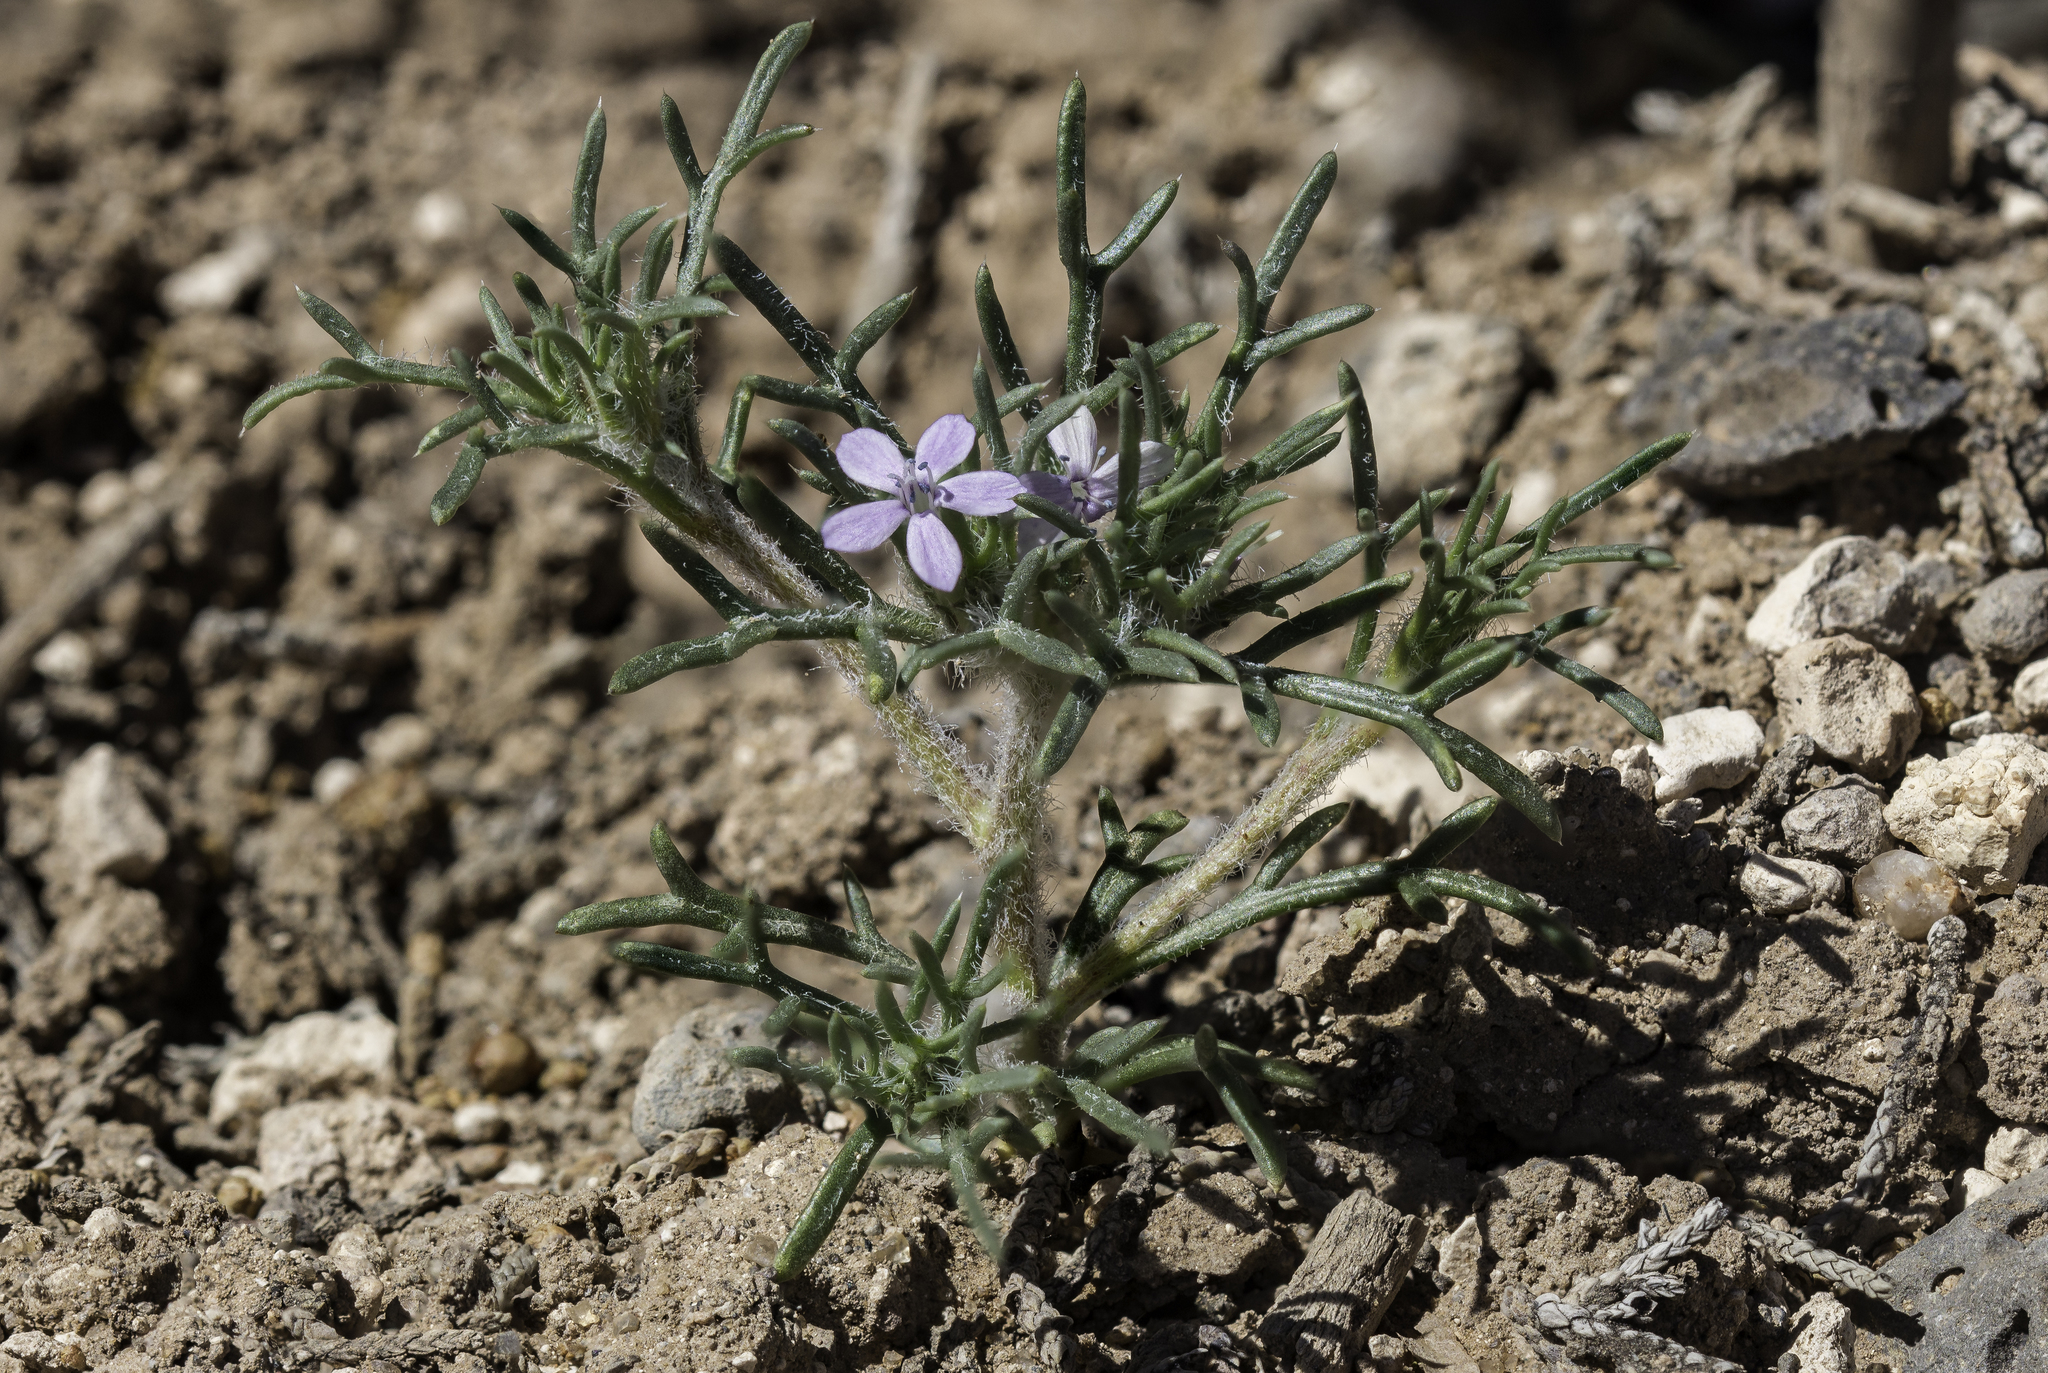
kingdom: Plantae
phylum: Tracheophyta
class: Magnoliopsida
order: Ericales
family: Polemoniaceae
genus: Ipomopsis
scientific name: Ipomopsis pumila
